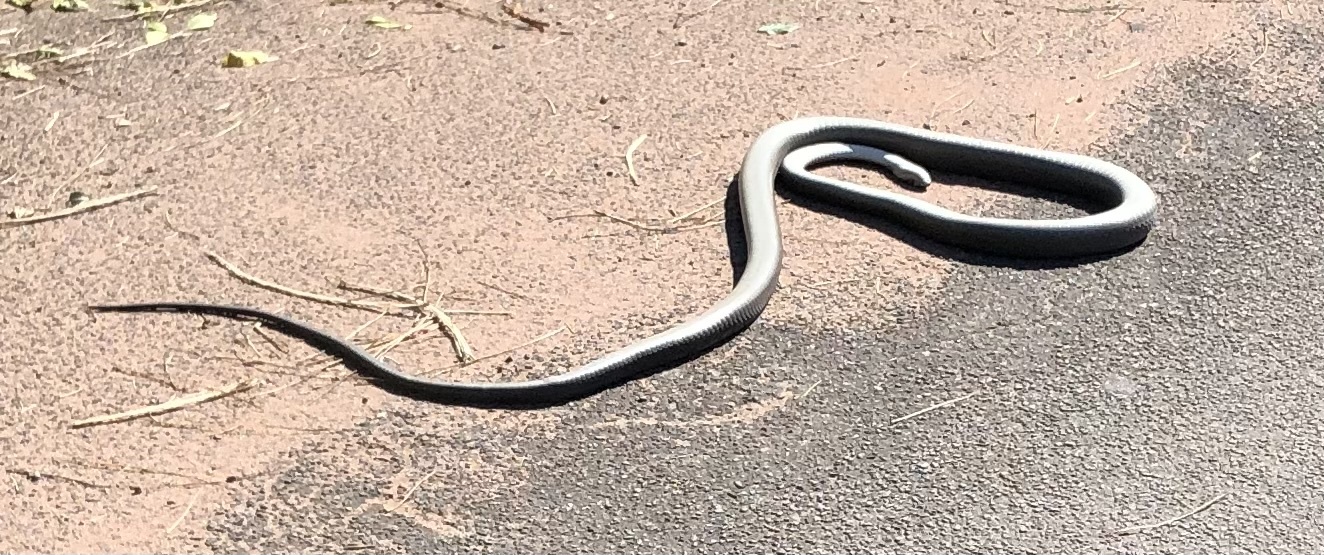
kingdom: Animalia
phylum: Chordata
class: Squamata
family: Elapidae
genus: Dendroaspis
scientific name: Dendroaspis polylepis
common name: Black mamba
